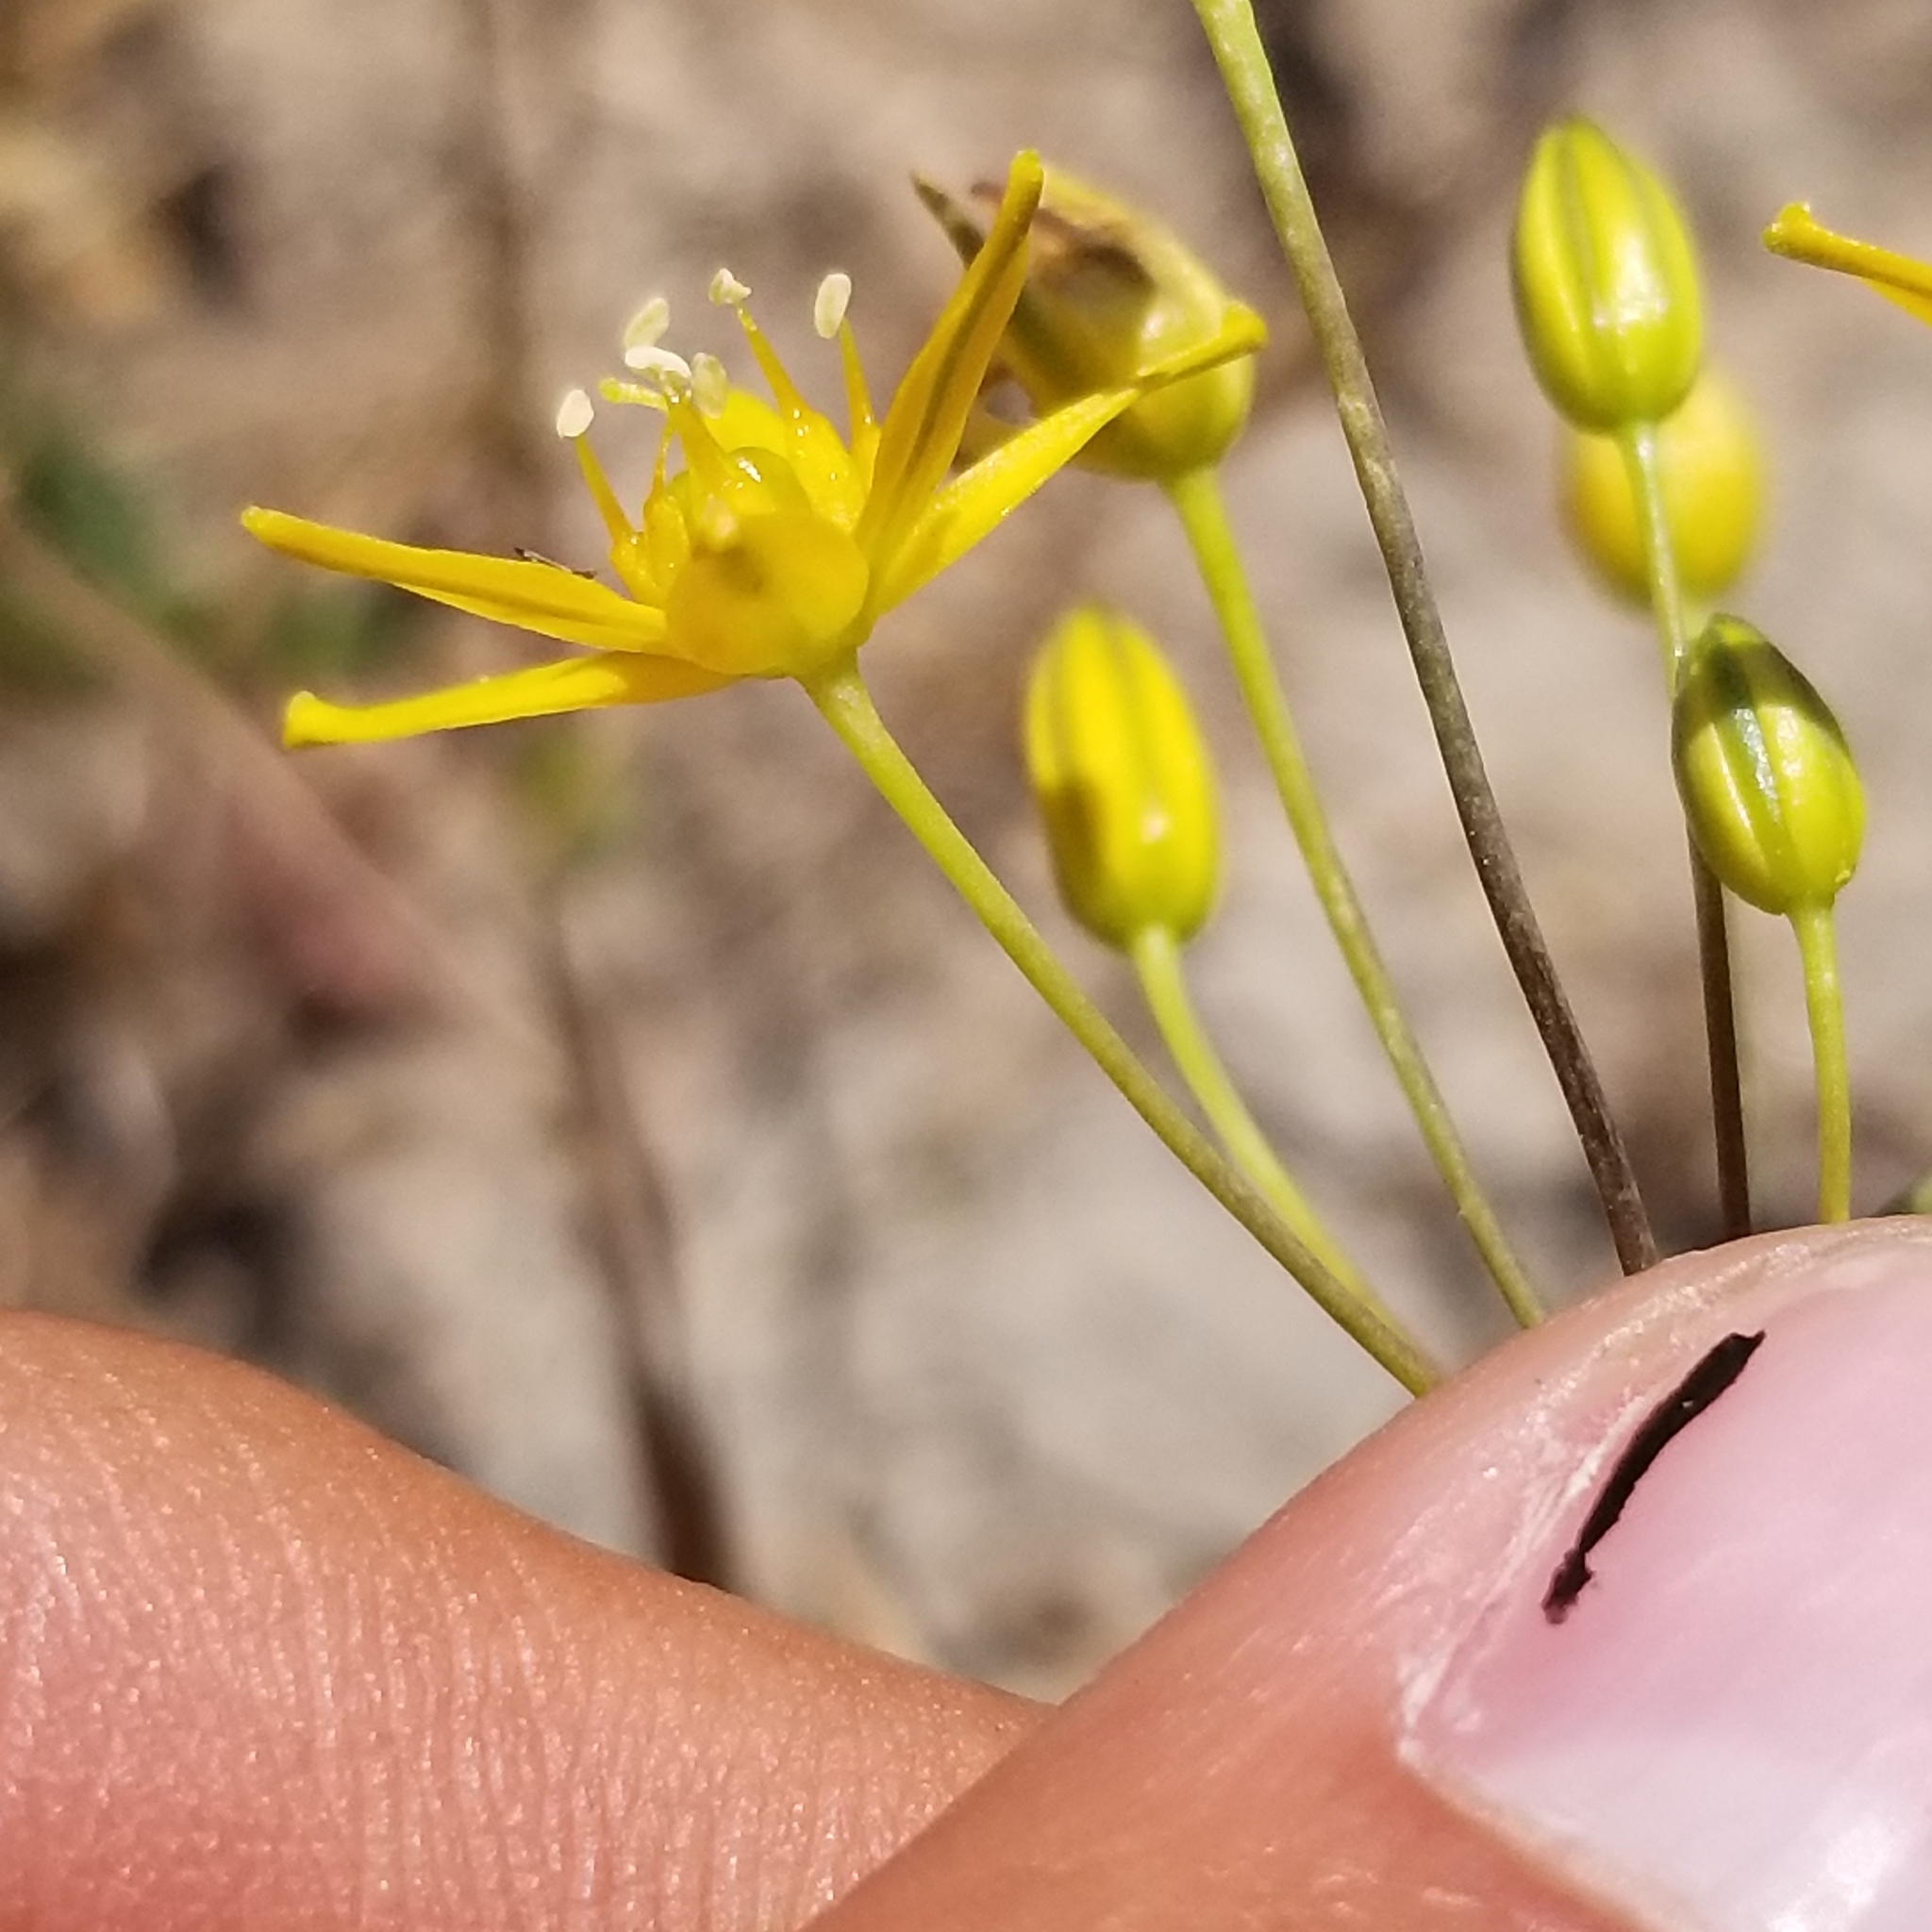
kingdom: Plantae
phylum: Tracheophyta
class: Liliopsida
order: Asparagales
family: Asparagaceae
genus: Bloomeria
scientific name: Bloomeria clevelandii
